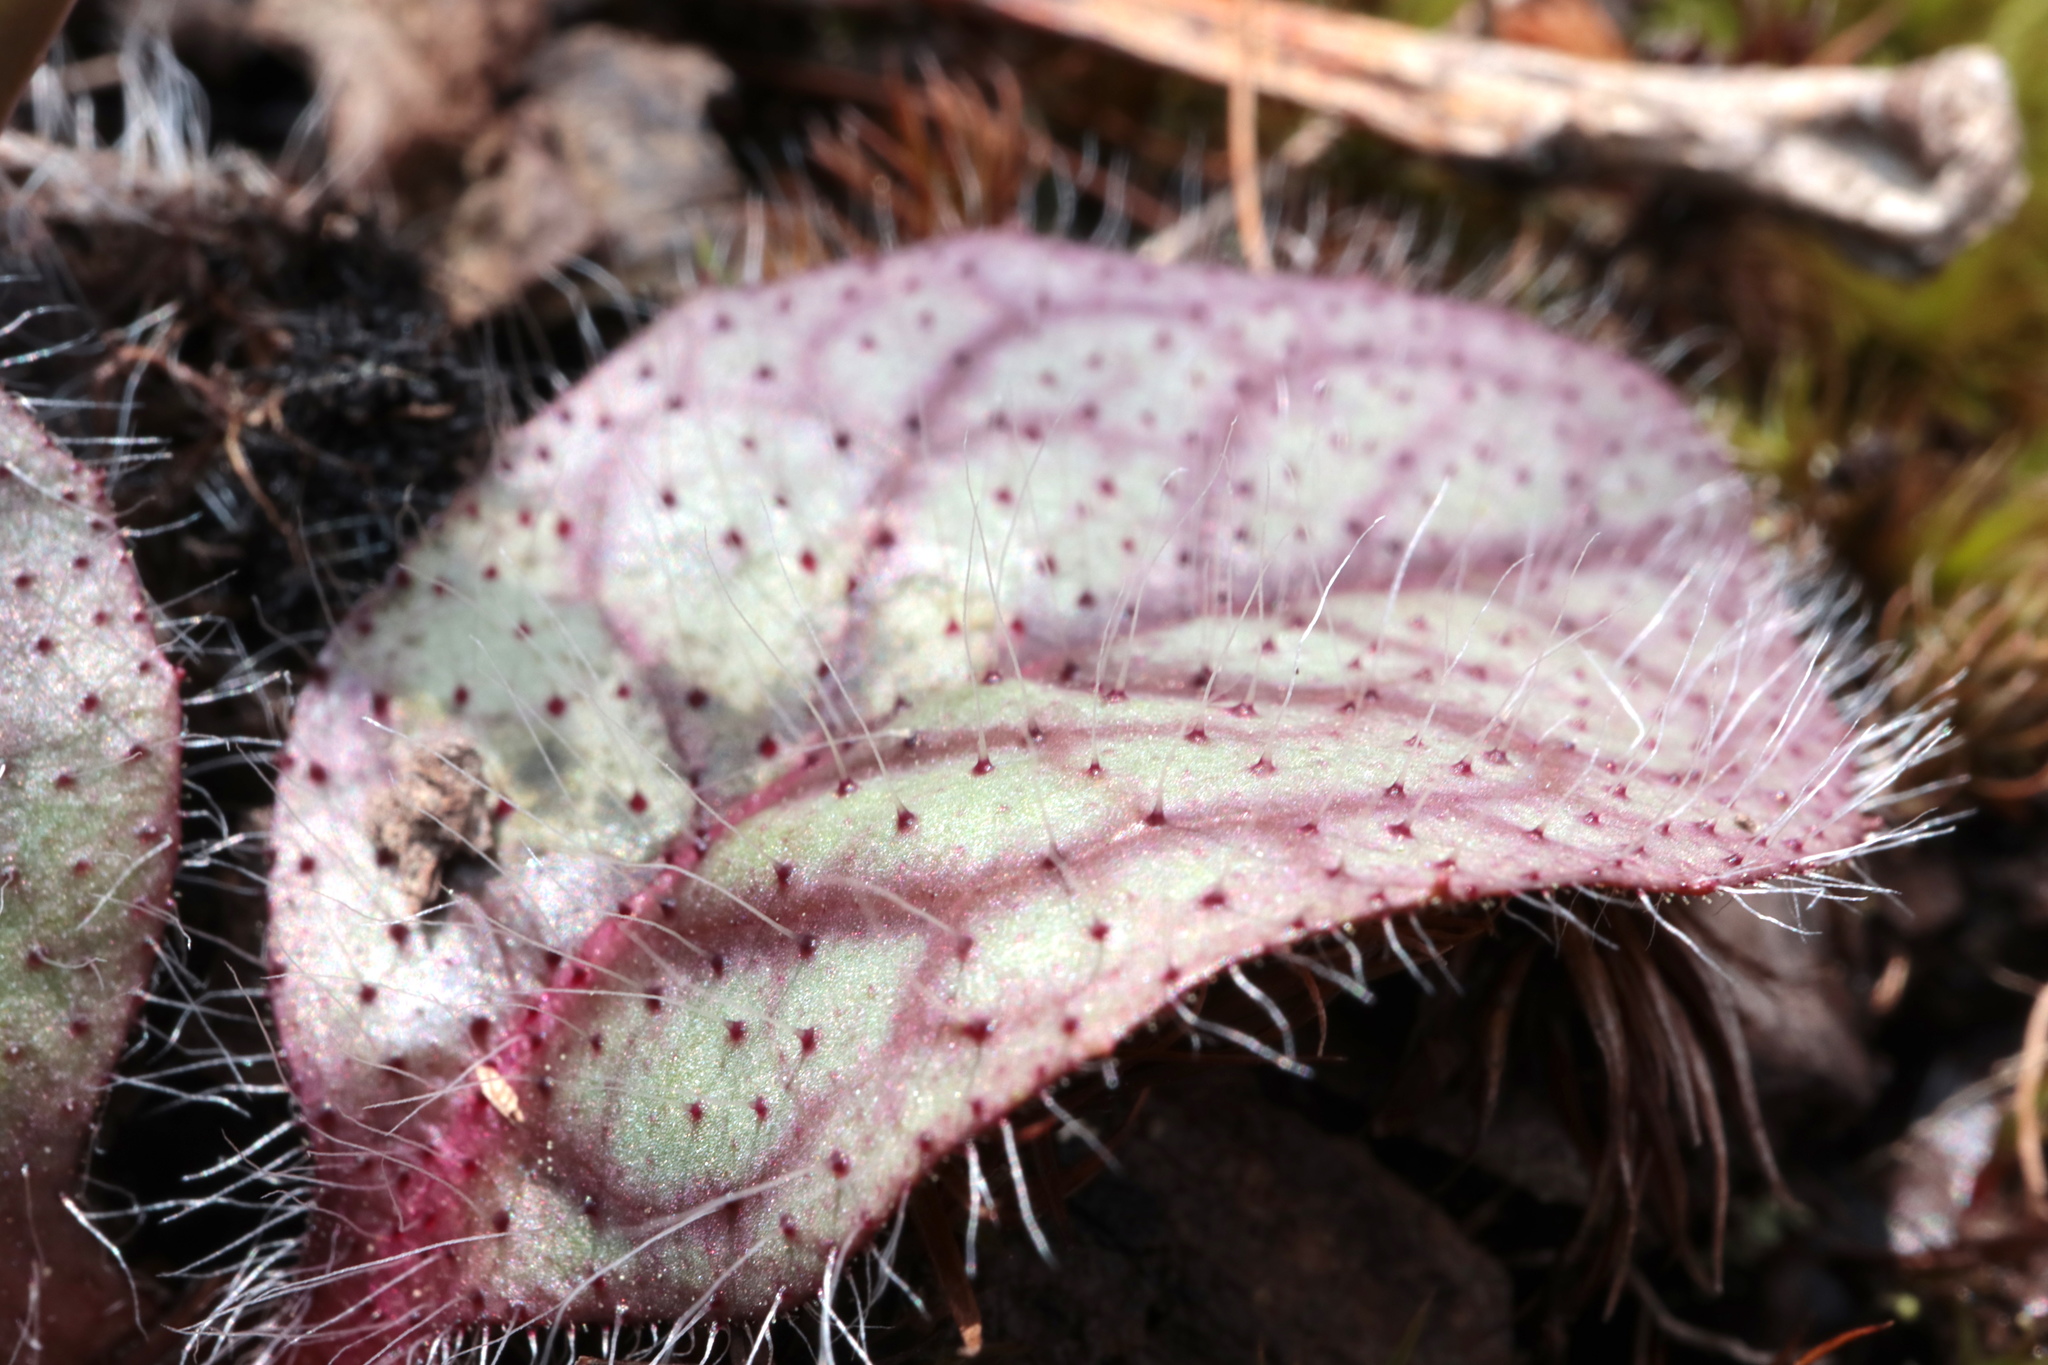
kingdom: Plantae
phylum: Tracheophyta
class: Magnoliopsida
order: Asterales
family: Asteraceae
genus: Hieracium
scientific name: Hieracium venosum
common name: Rattlesnake hawkweed
